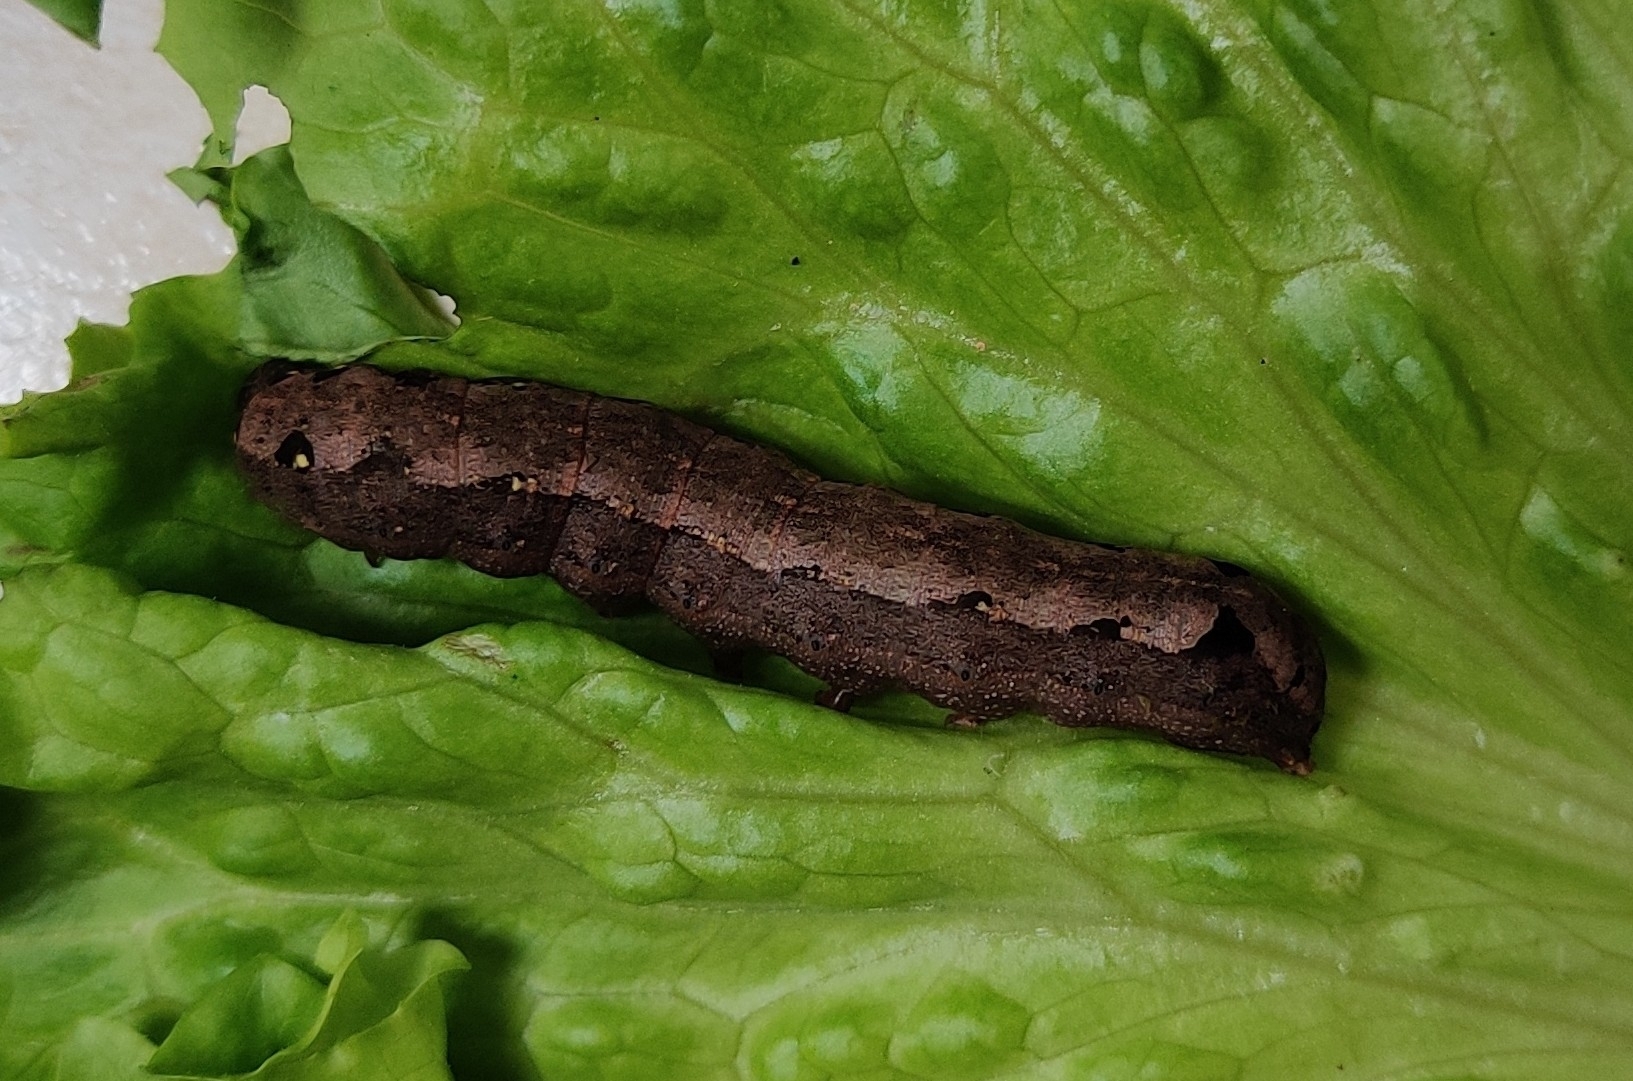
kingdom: Animalia
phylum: Arthropoda
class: Insecta
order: Lepidoptera
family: Noctuidae
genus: Spodoptera
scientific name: Spodoptera littoralis
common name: Egyptian cotton leafworm
